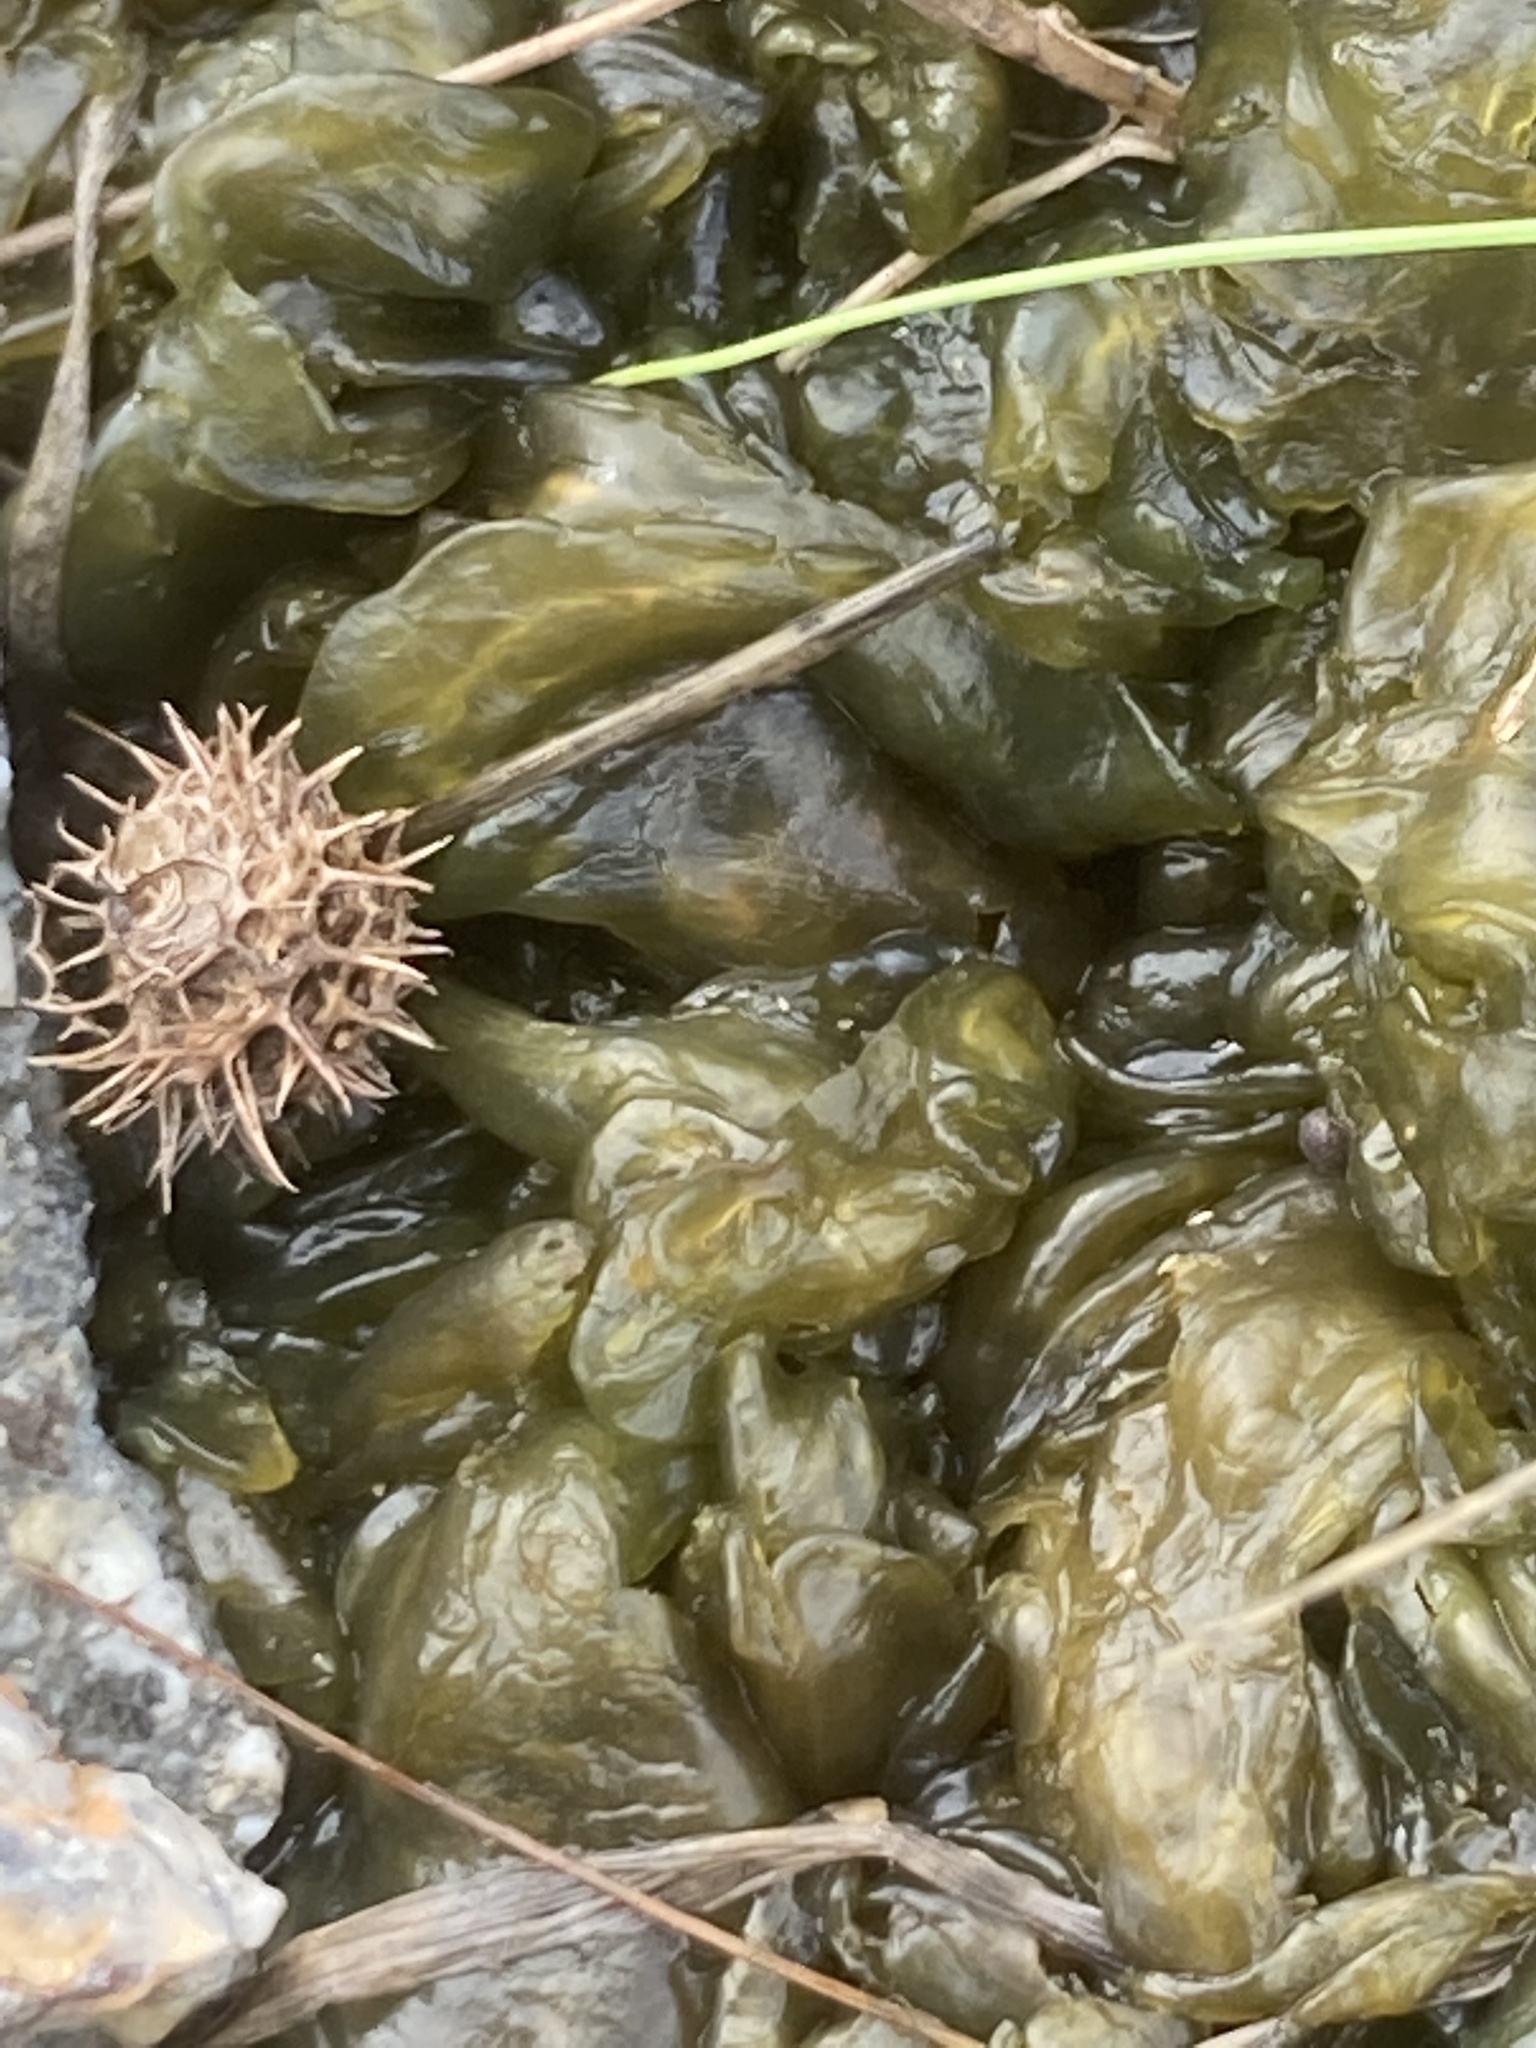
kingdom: Bacteria
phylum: Cyanobacteria
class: Cyanobacteriia
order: Cyanobacteriales
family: Nostocaceae
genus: Nostoc
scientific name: Nostoc commune
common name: Star jelly
